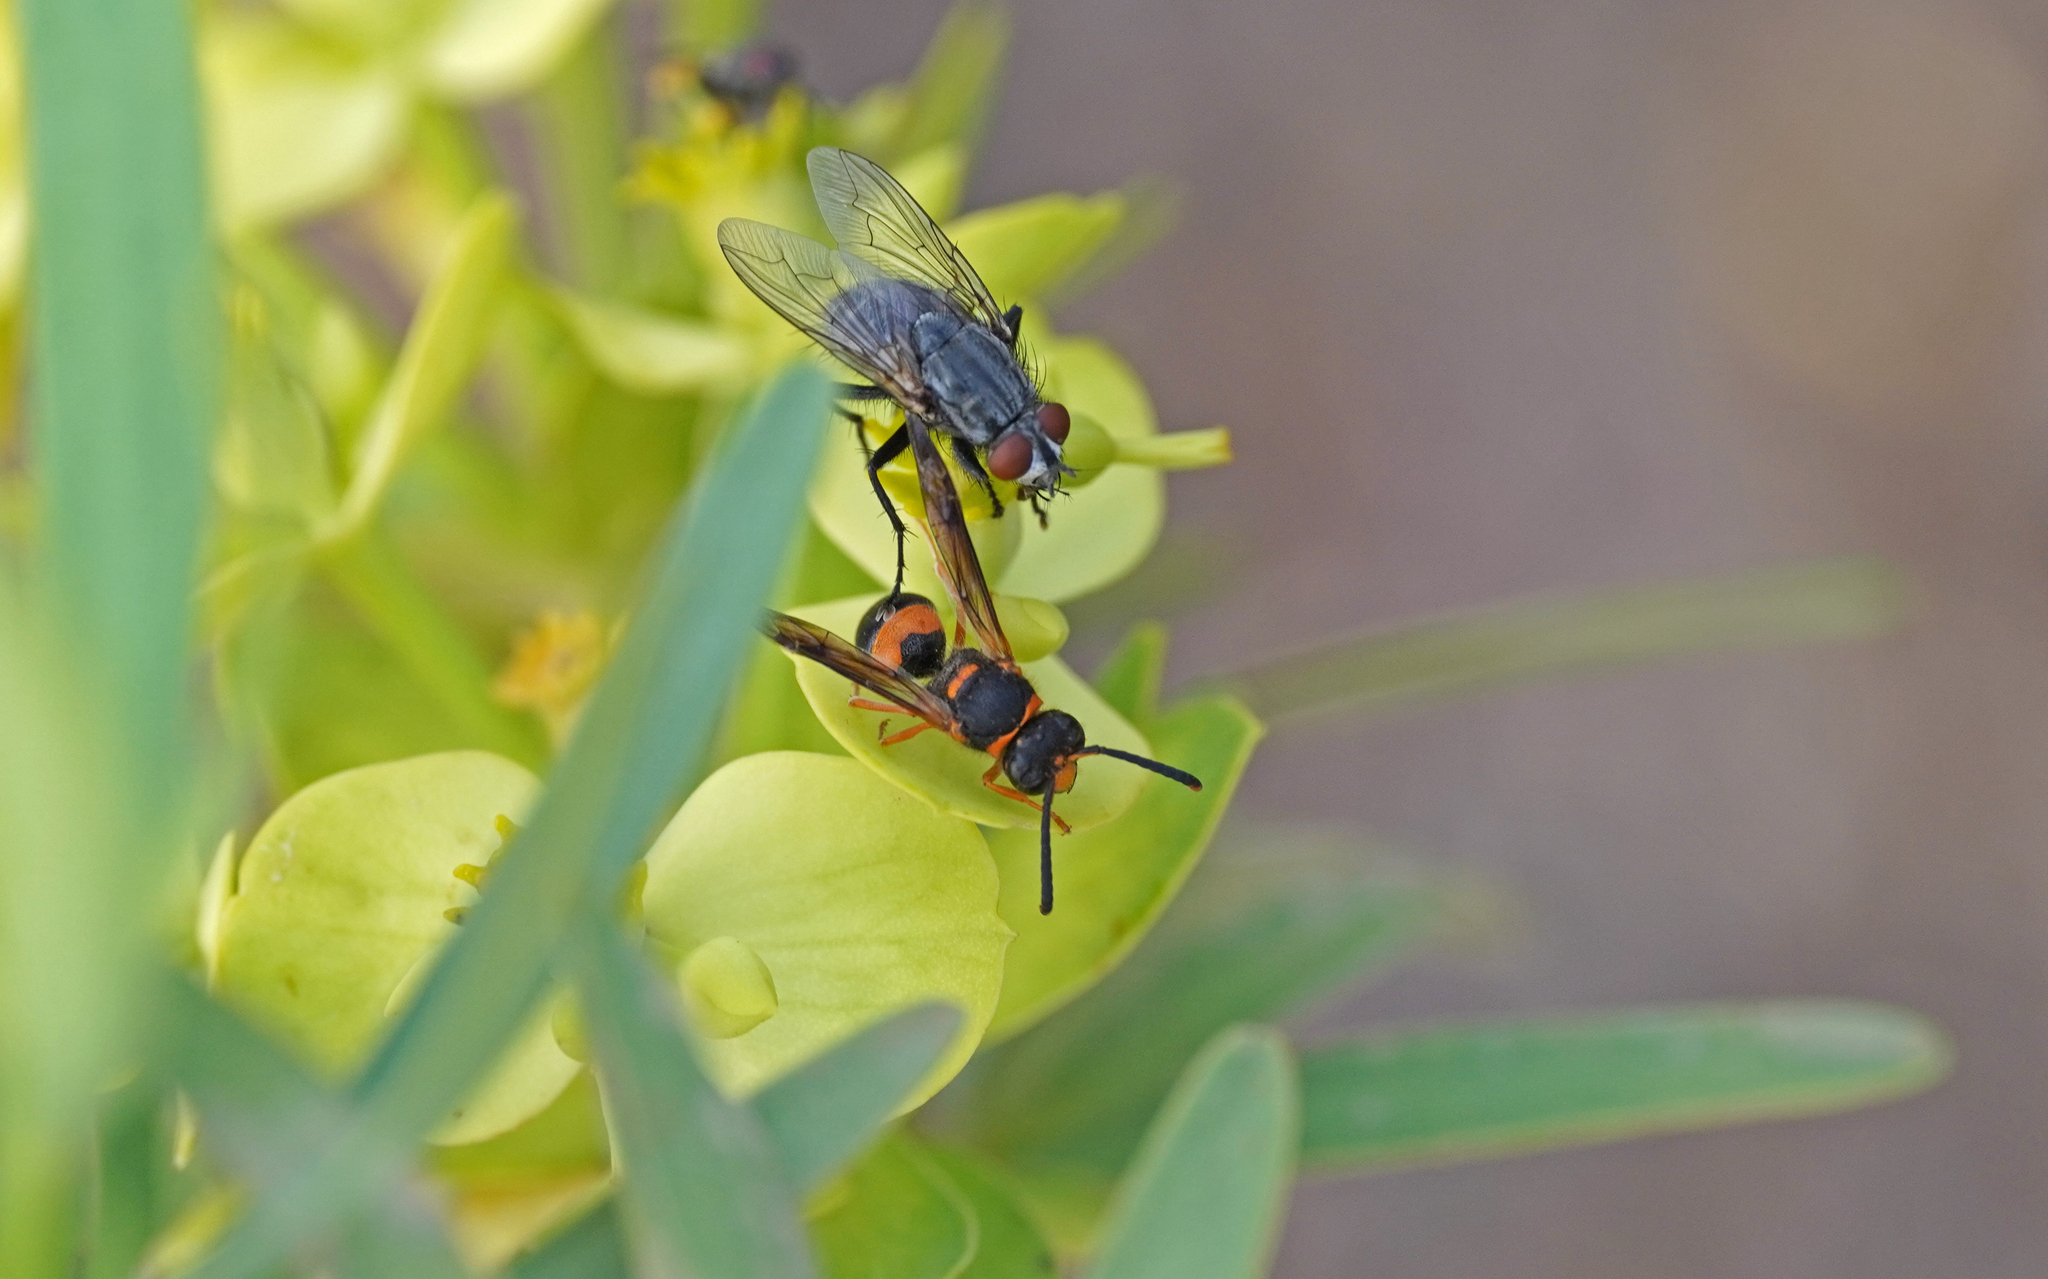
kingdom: Animalia
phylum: Arthropoda
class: Insecta
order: Hymenoptera
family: Vespidae
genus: Ancistrocerus
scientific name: Ancistrocerus kerneri
